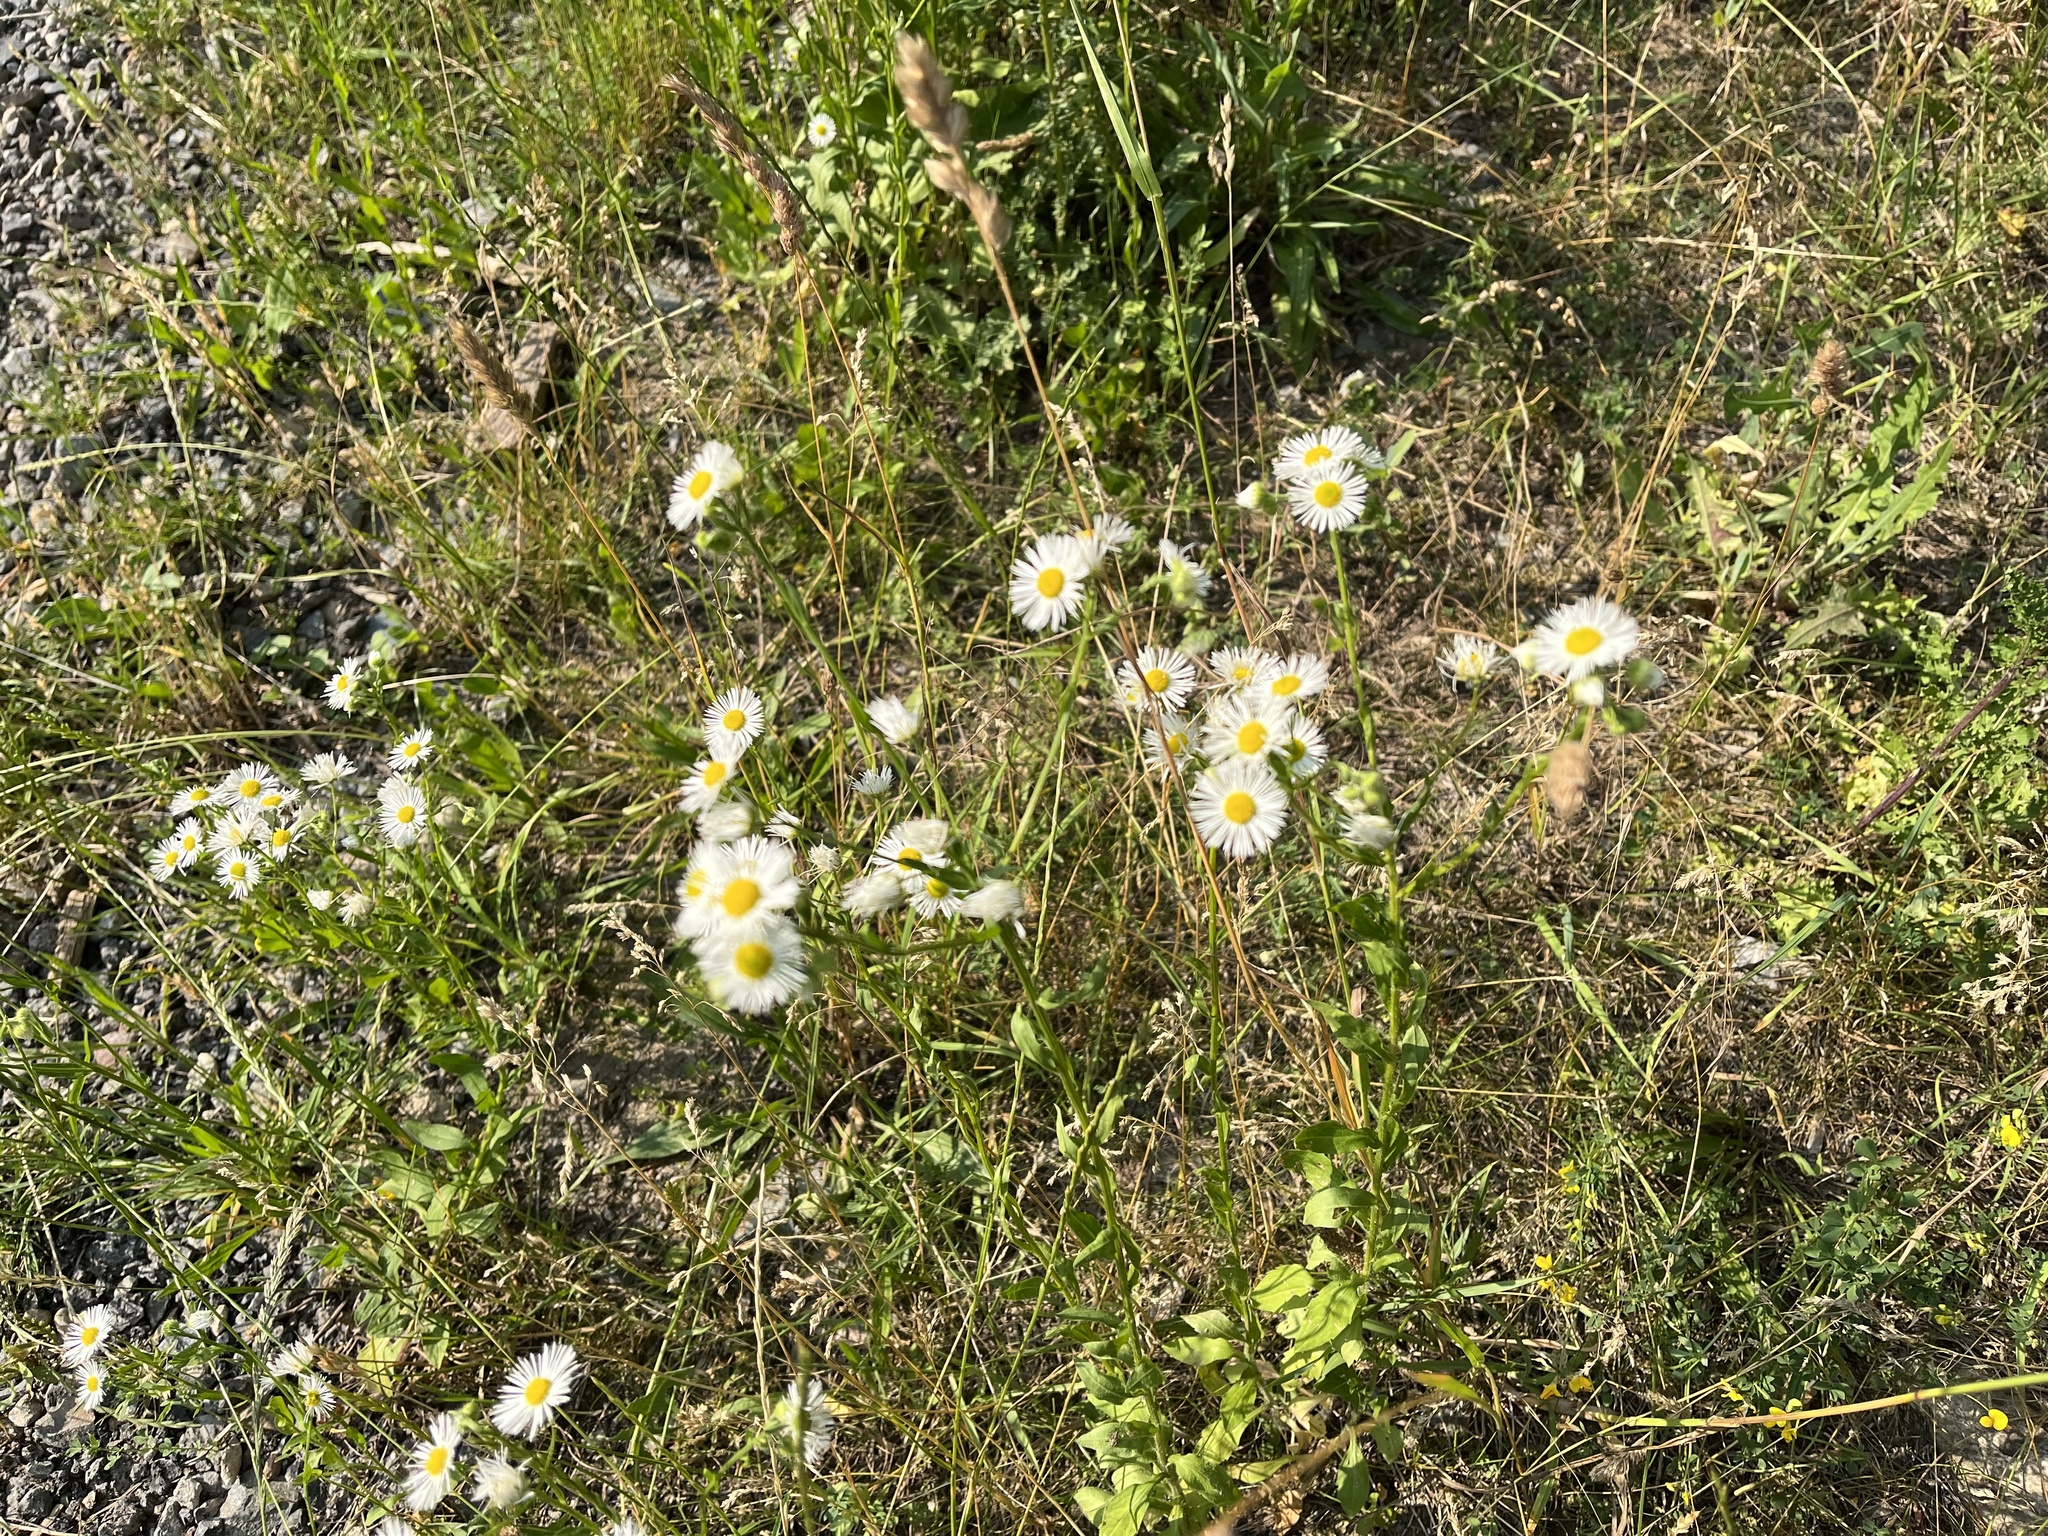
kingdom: Plantae
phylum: Tracheophyta
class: Magnoliopsida
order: Asterales
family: Asteraceae
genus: Erigeron
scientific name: Erigeron annuus
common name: Tall fleabane
